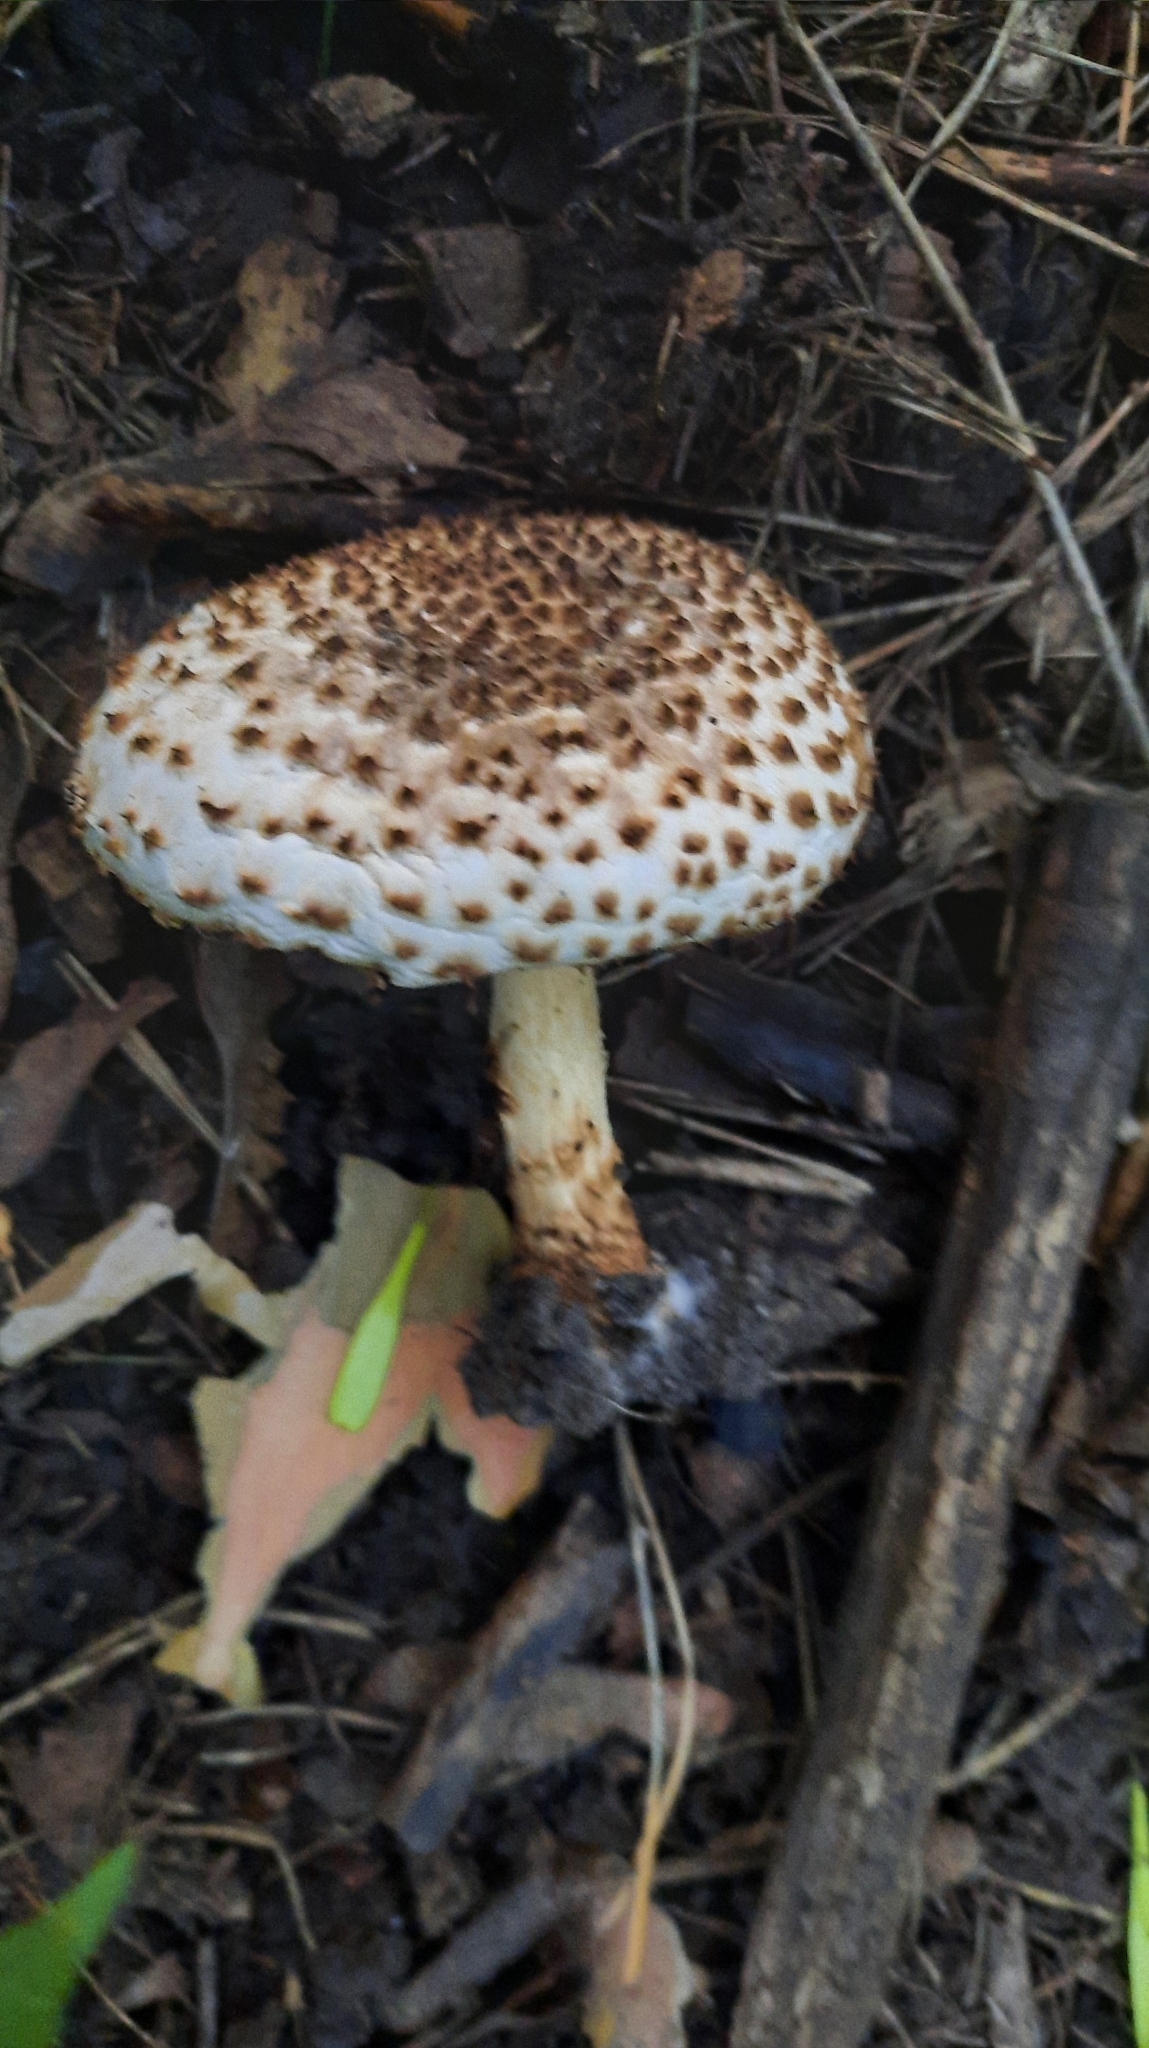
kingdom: Fungi
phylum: Basidiomycota
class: Agaricomycetes
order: Agaricales
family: Agaricaceae
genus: Echinoderma
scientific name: Echinoderma asperum
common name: Freckled dapperling
